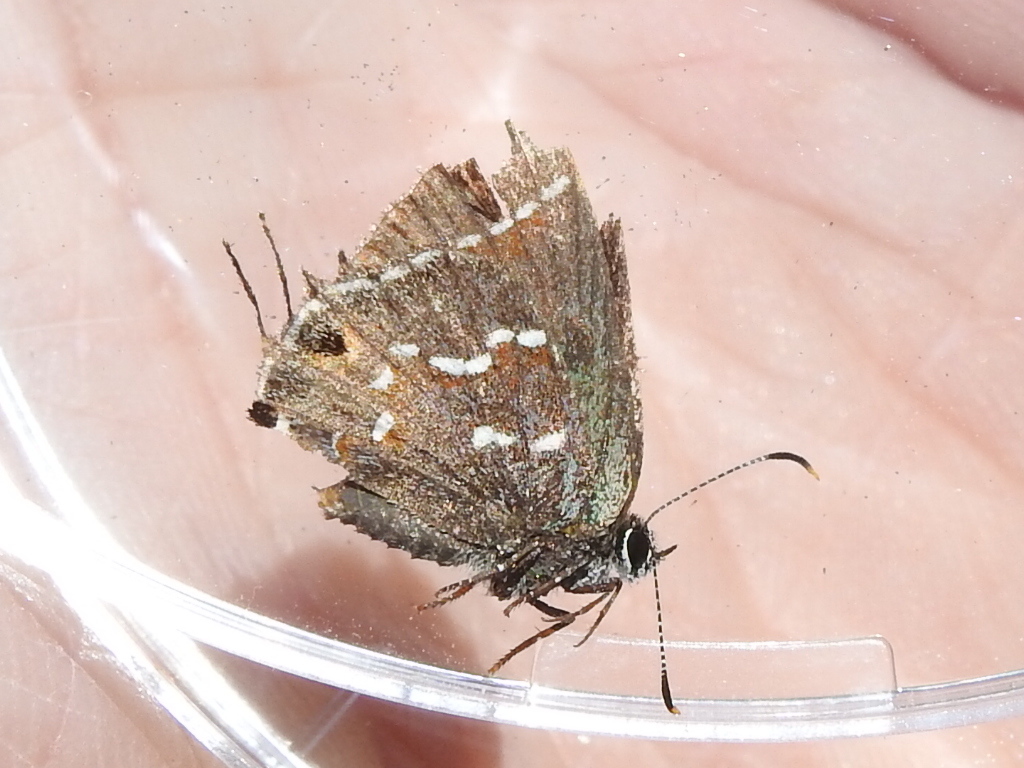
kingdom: Animalia
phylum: Arthropoda
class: Insecta
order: Lepidoptera
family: Lycaenidae
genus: Mitoura
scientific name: Mitoura gryneus
